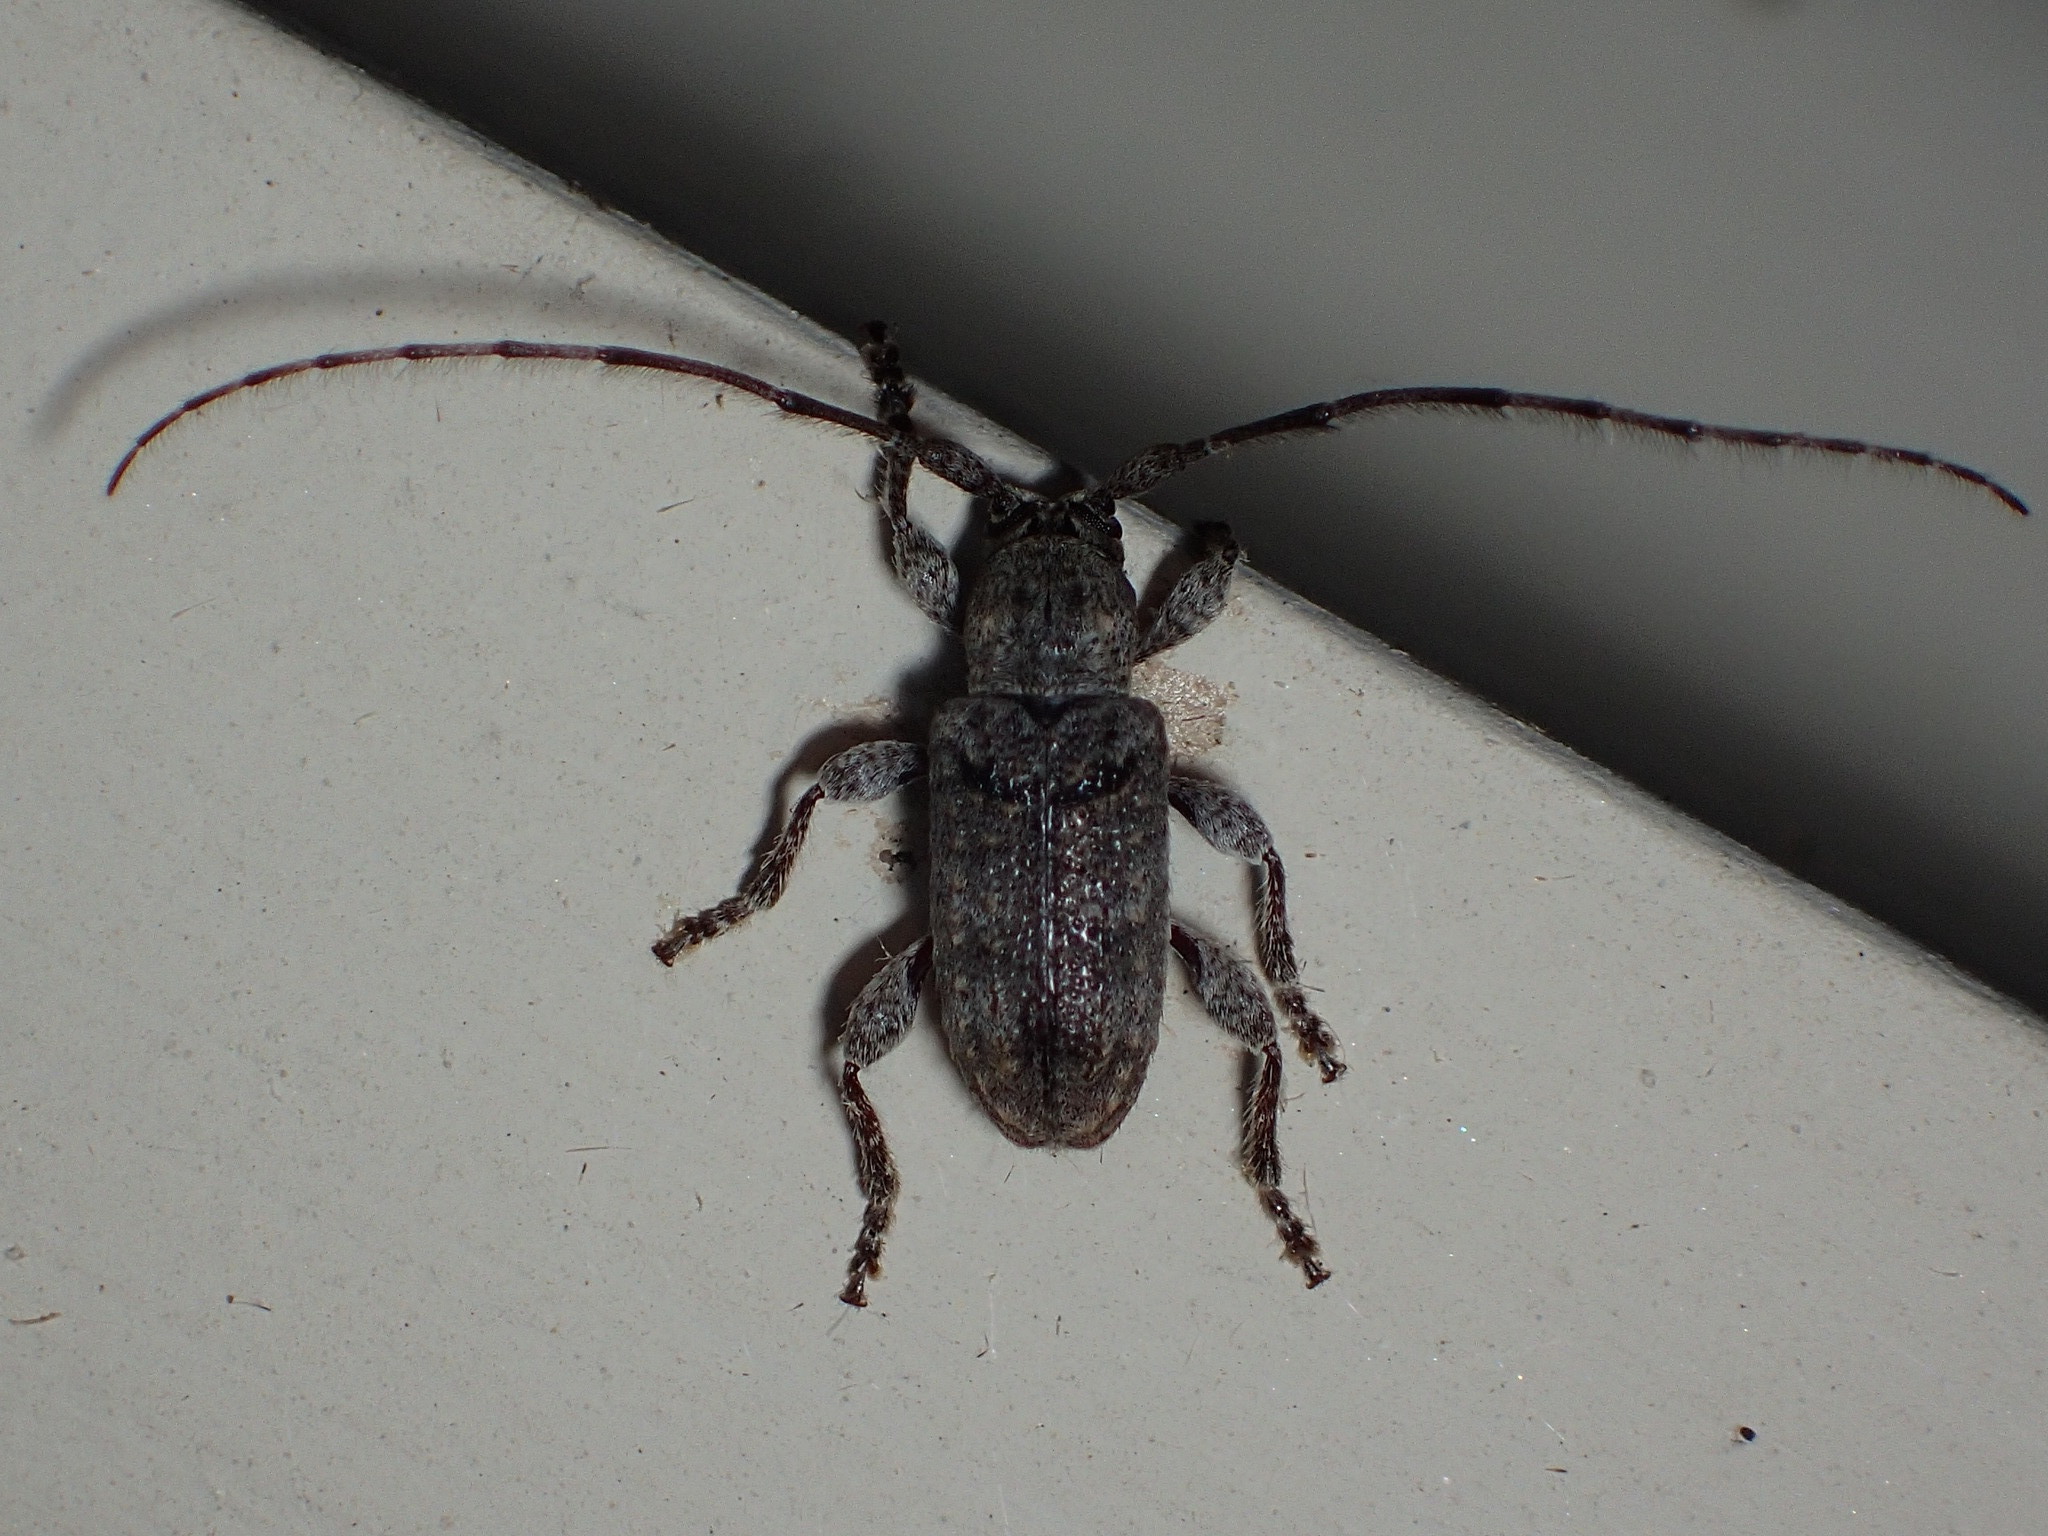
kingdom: Animalia
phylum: Arthropoda
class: Insecta
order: Coleoptera
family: Cerambycidae
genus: Ecyrus
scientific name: Ecyrus dasycerus
